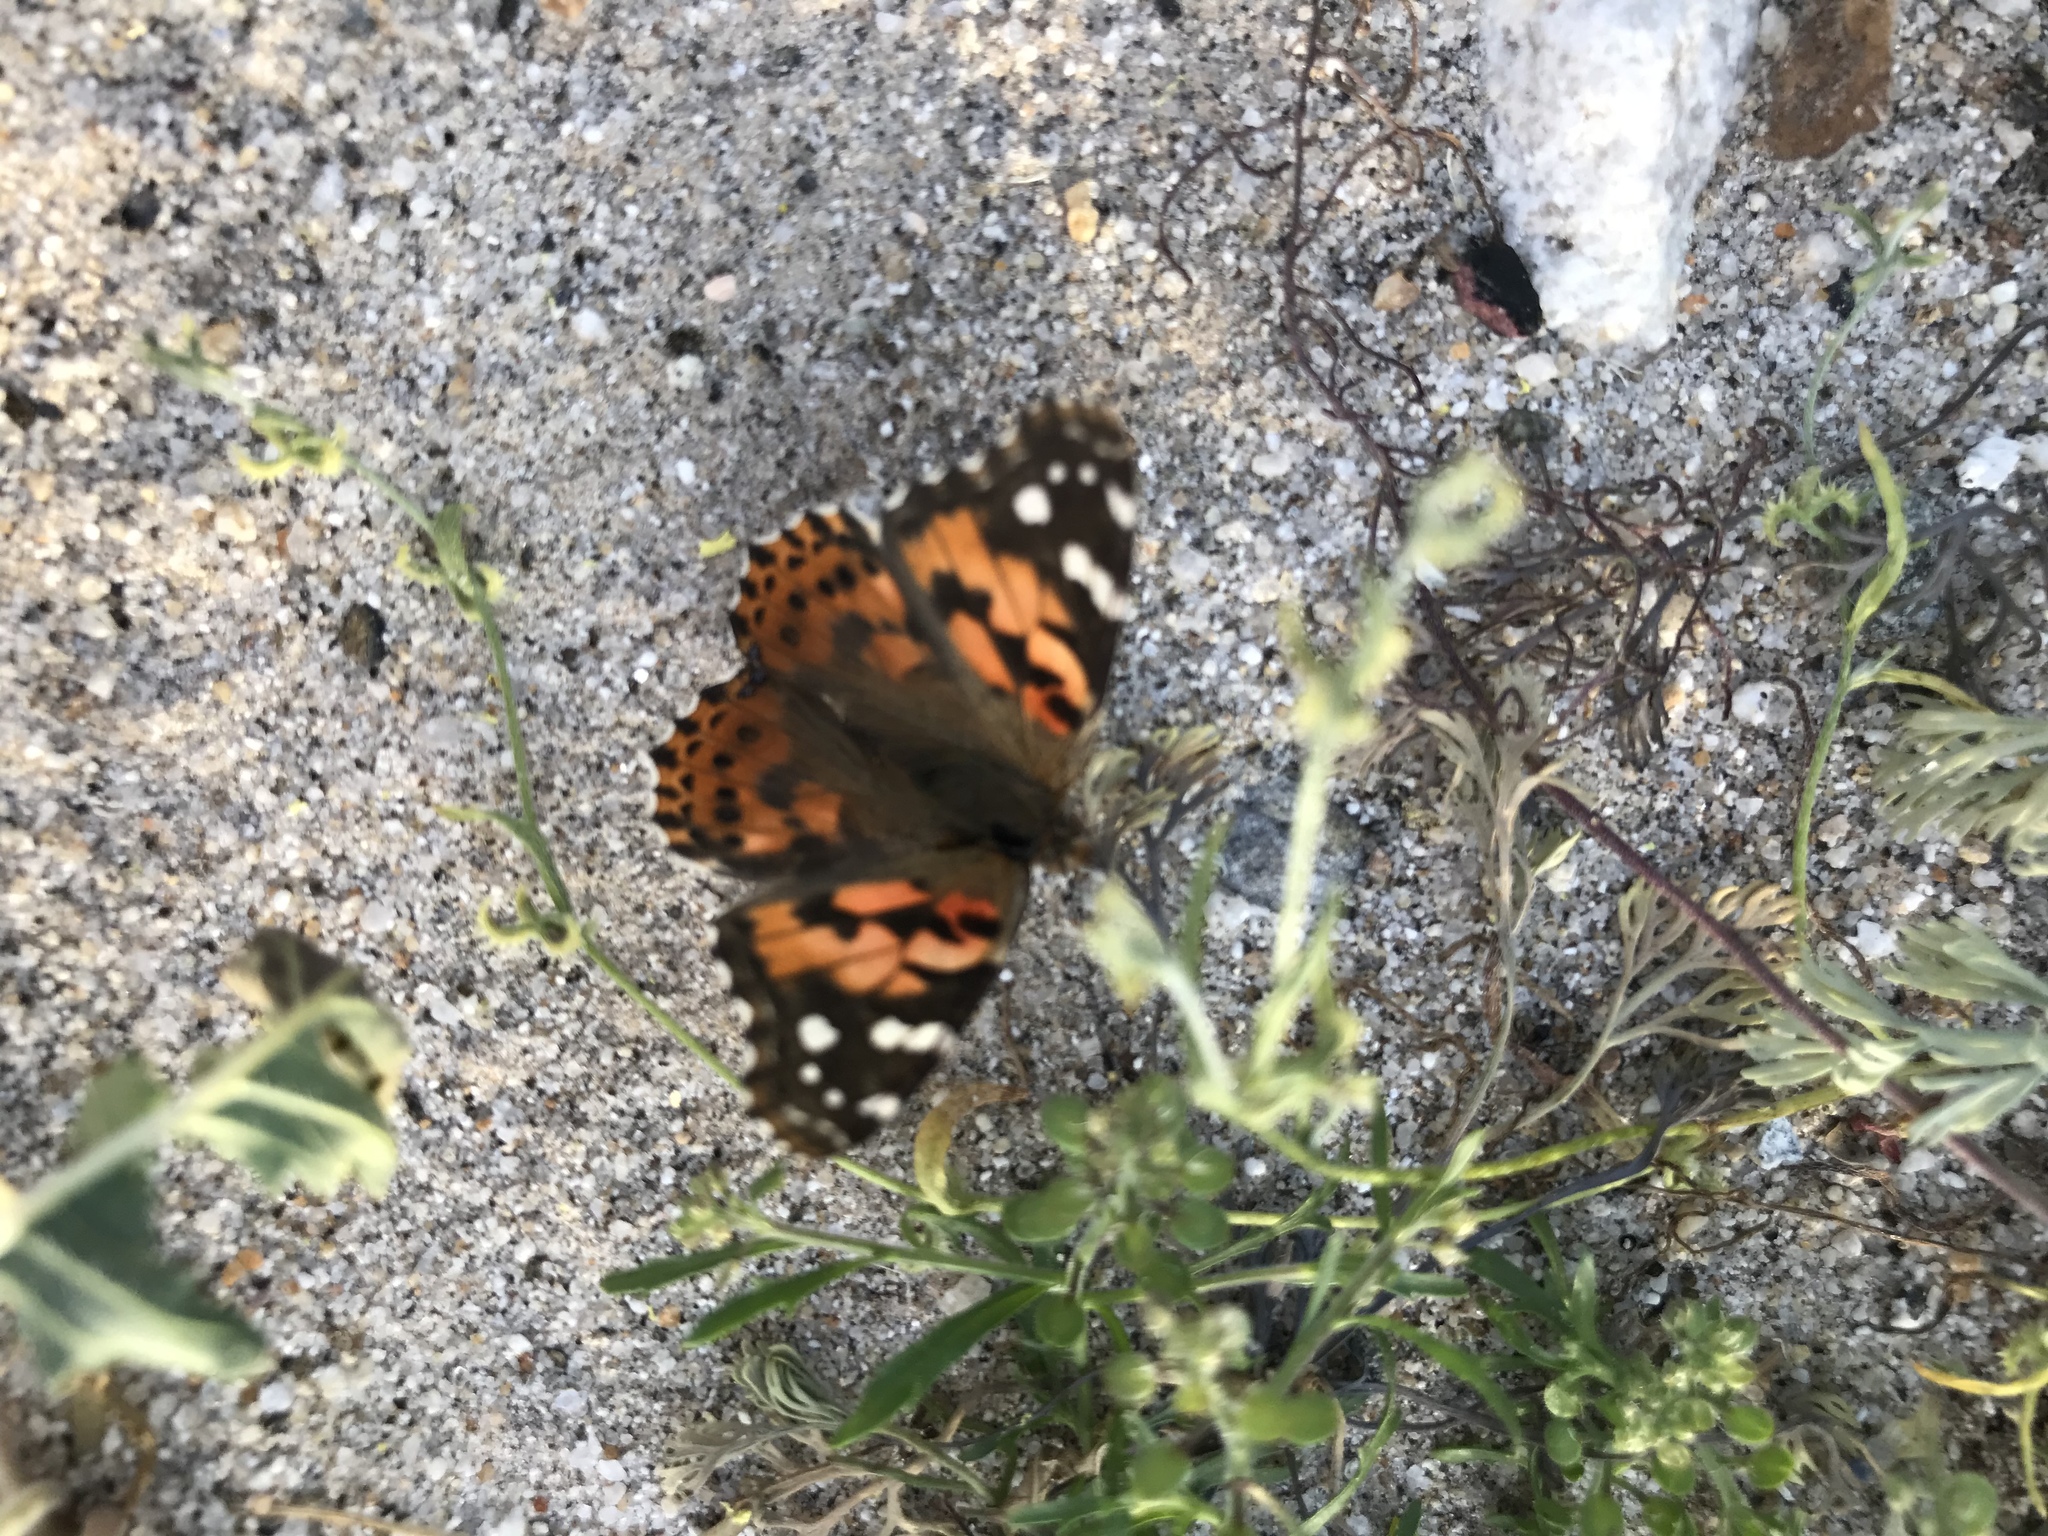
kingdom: Animalia
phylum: Arthropoda
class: Insecta
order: Lepidoptera
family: Nymphalidae
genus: Vanessa
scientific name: Vanessa cardui
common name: Painted lady
